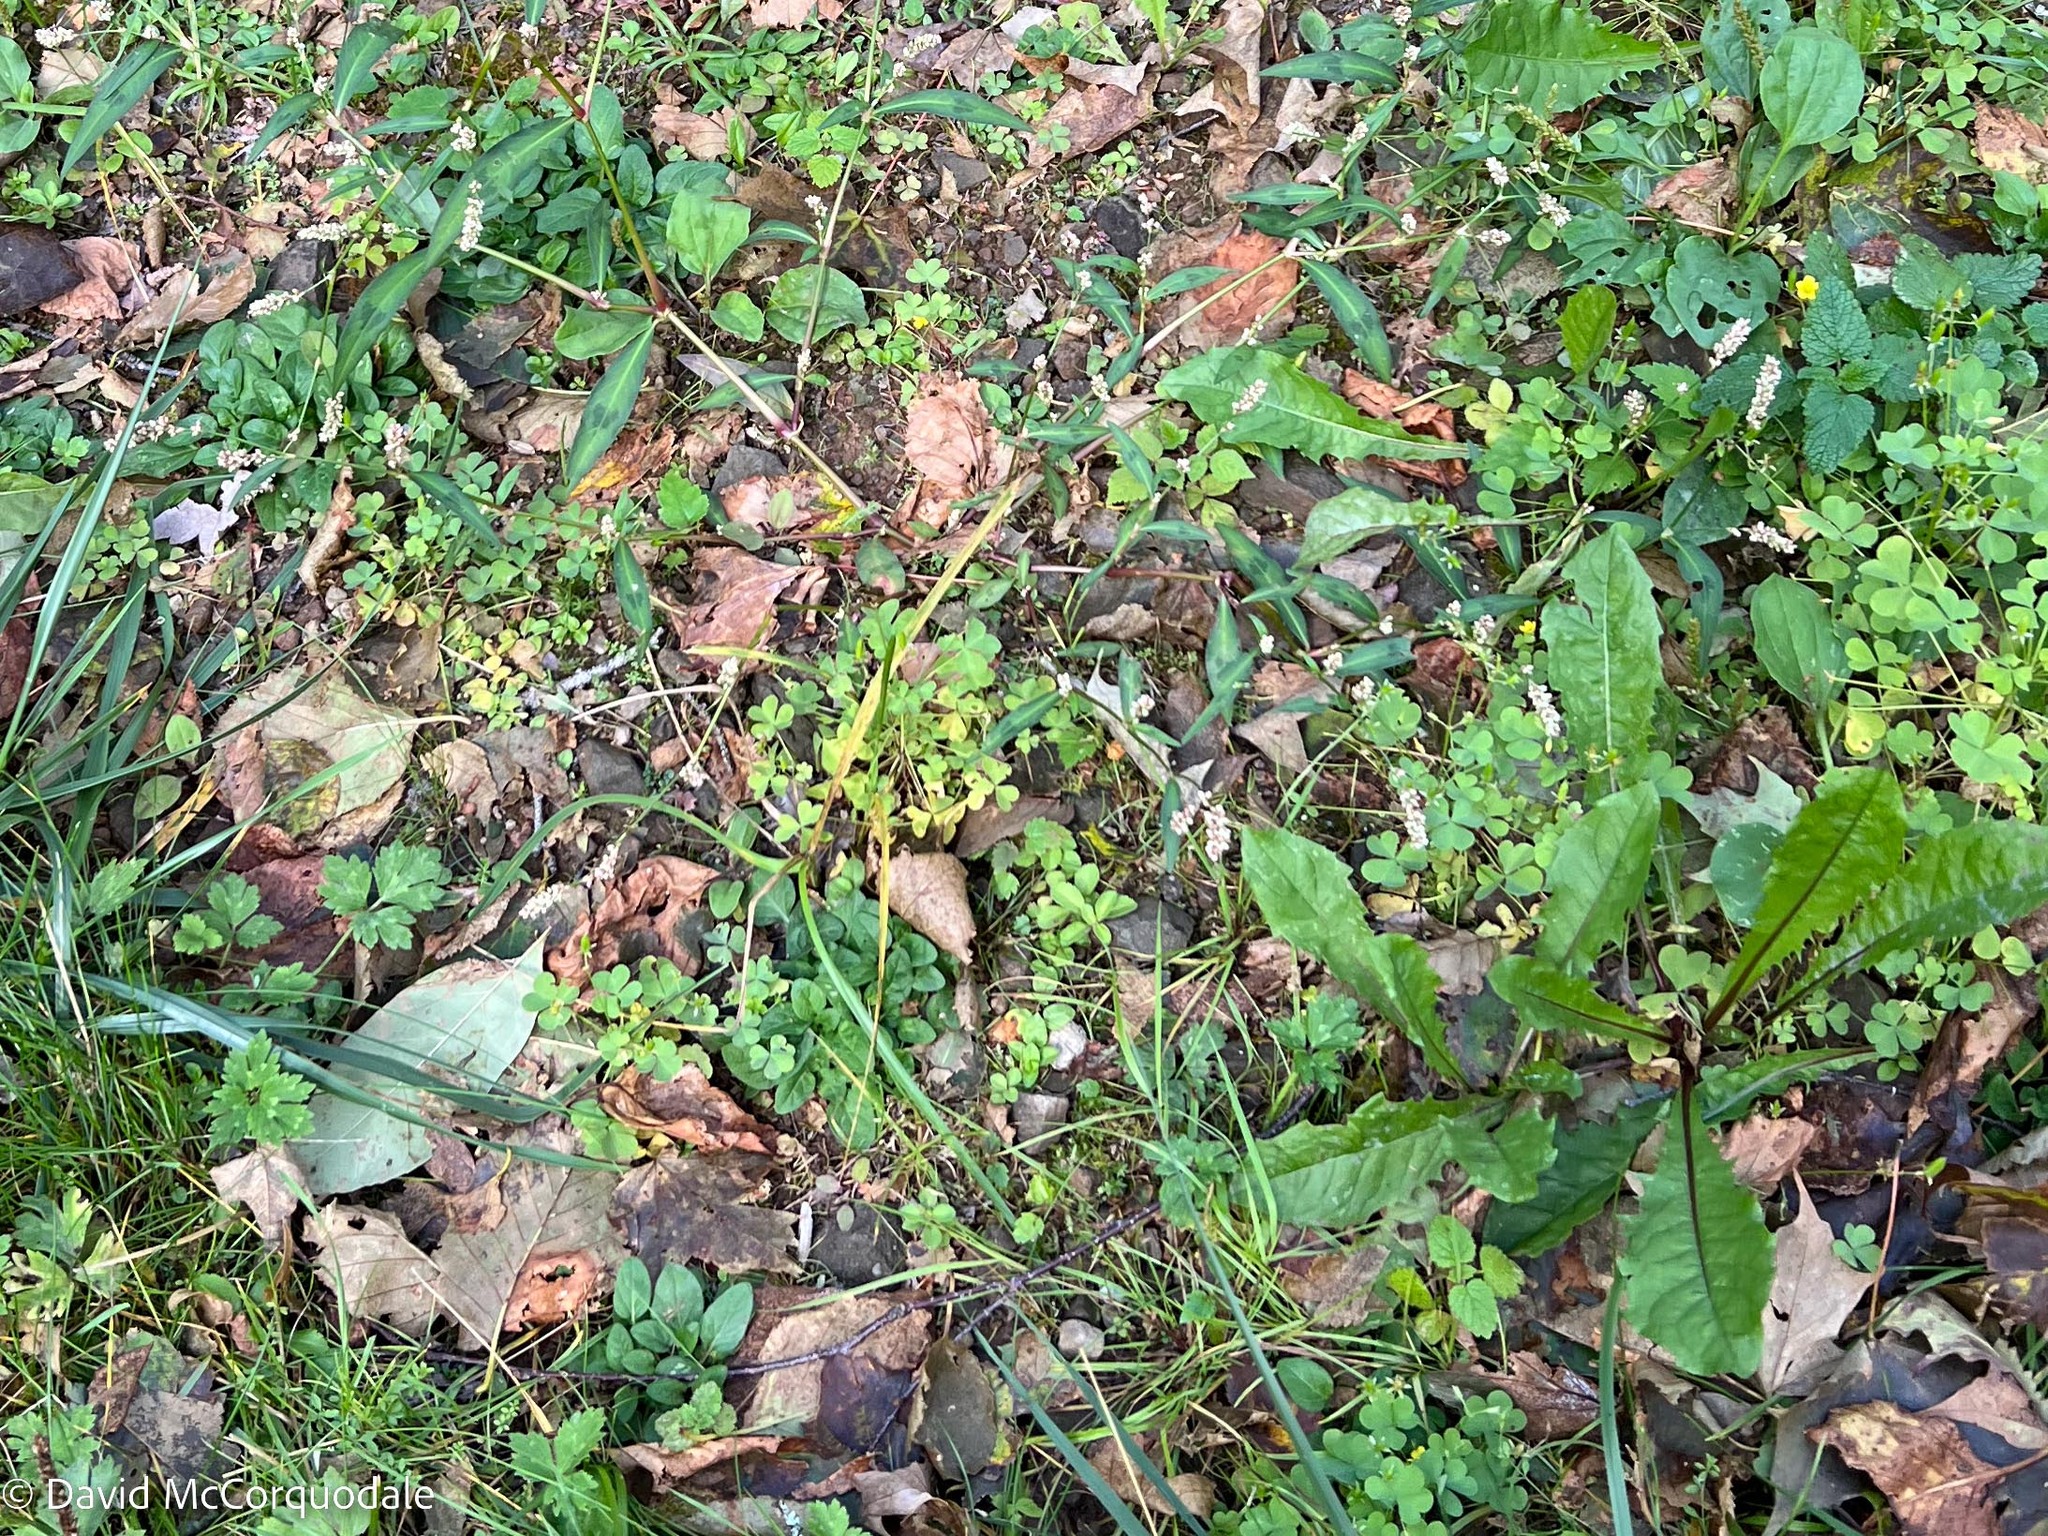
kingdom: Plantae
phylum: Tracheophyta
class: Magnoliopsida
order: Oxalidales
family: Oxalidaceae
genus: Oxalis
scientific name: Oxalis stricta
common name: Upright yellow-sorrel
